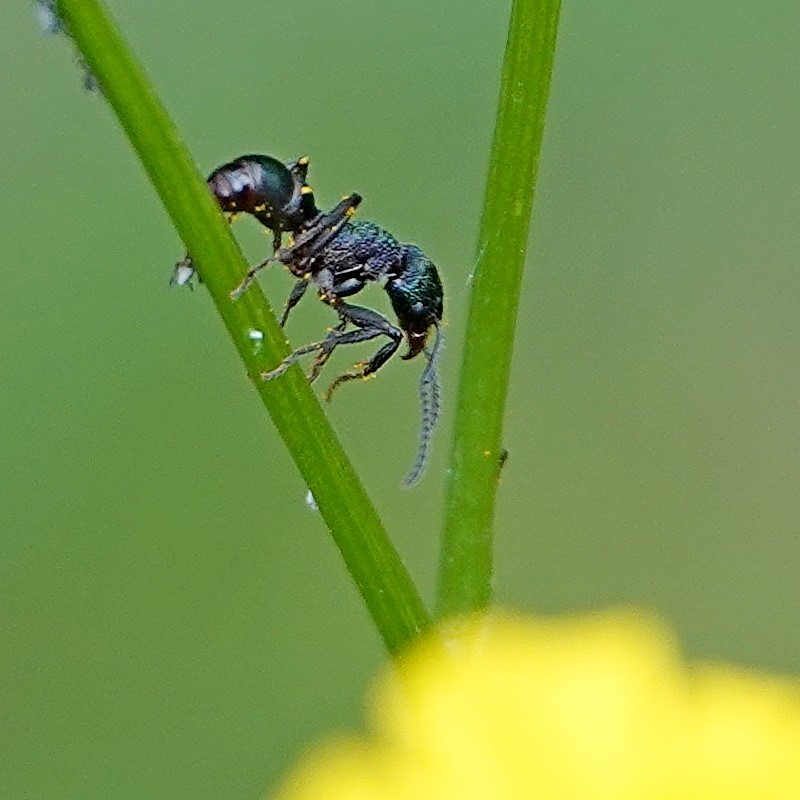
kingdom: Animalia
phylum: Arthropoda
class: Insecta
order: Hymenoptera
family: Formicidae
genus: Rhytidoponera
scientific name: Rhytidoponera metallica
